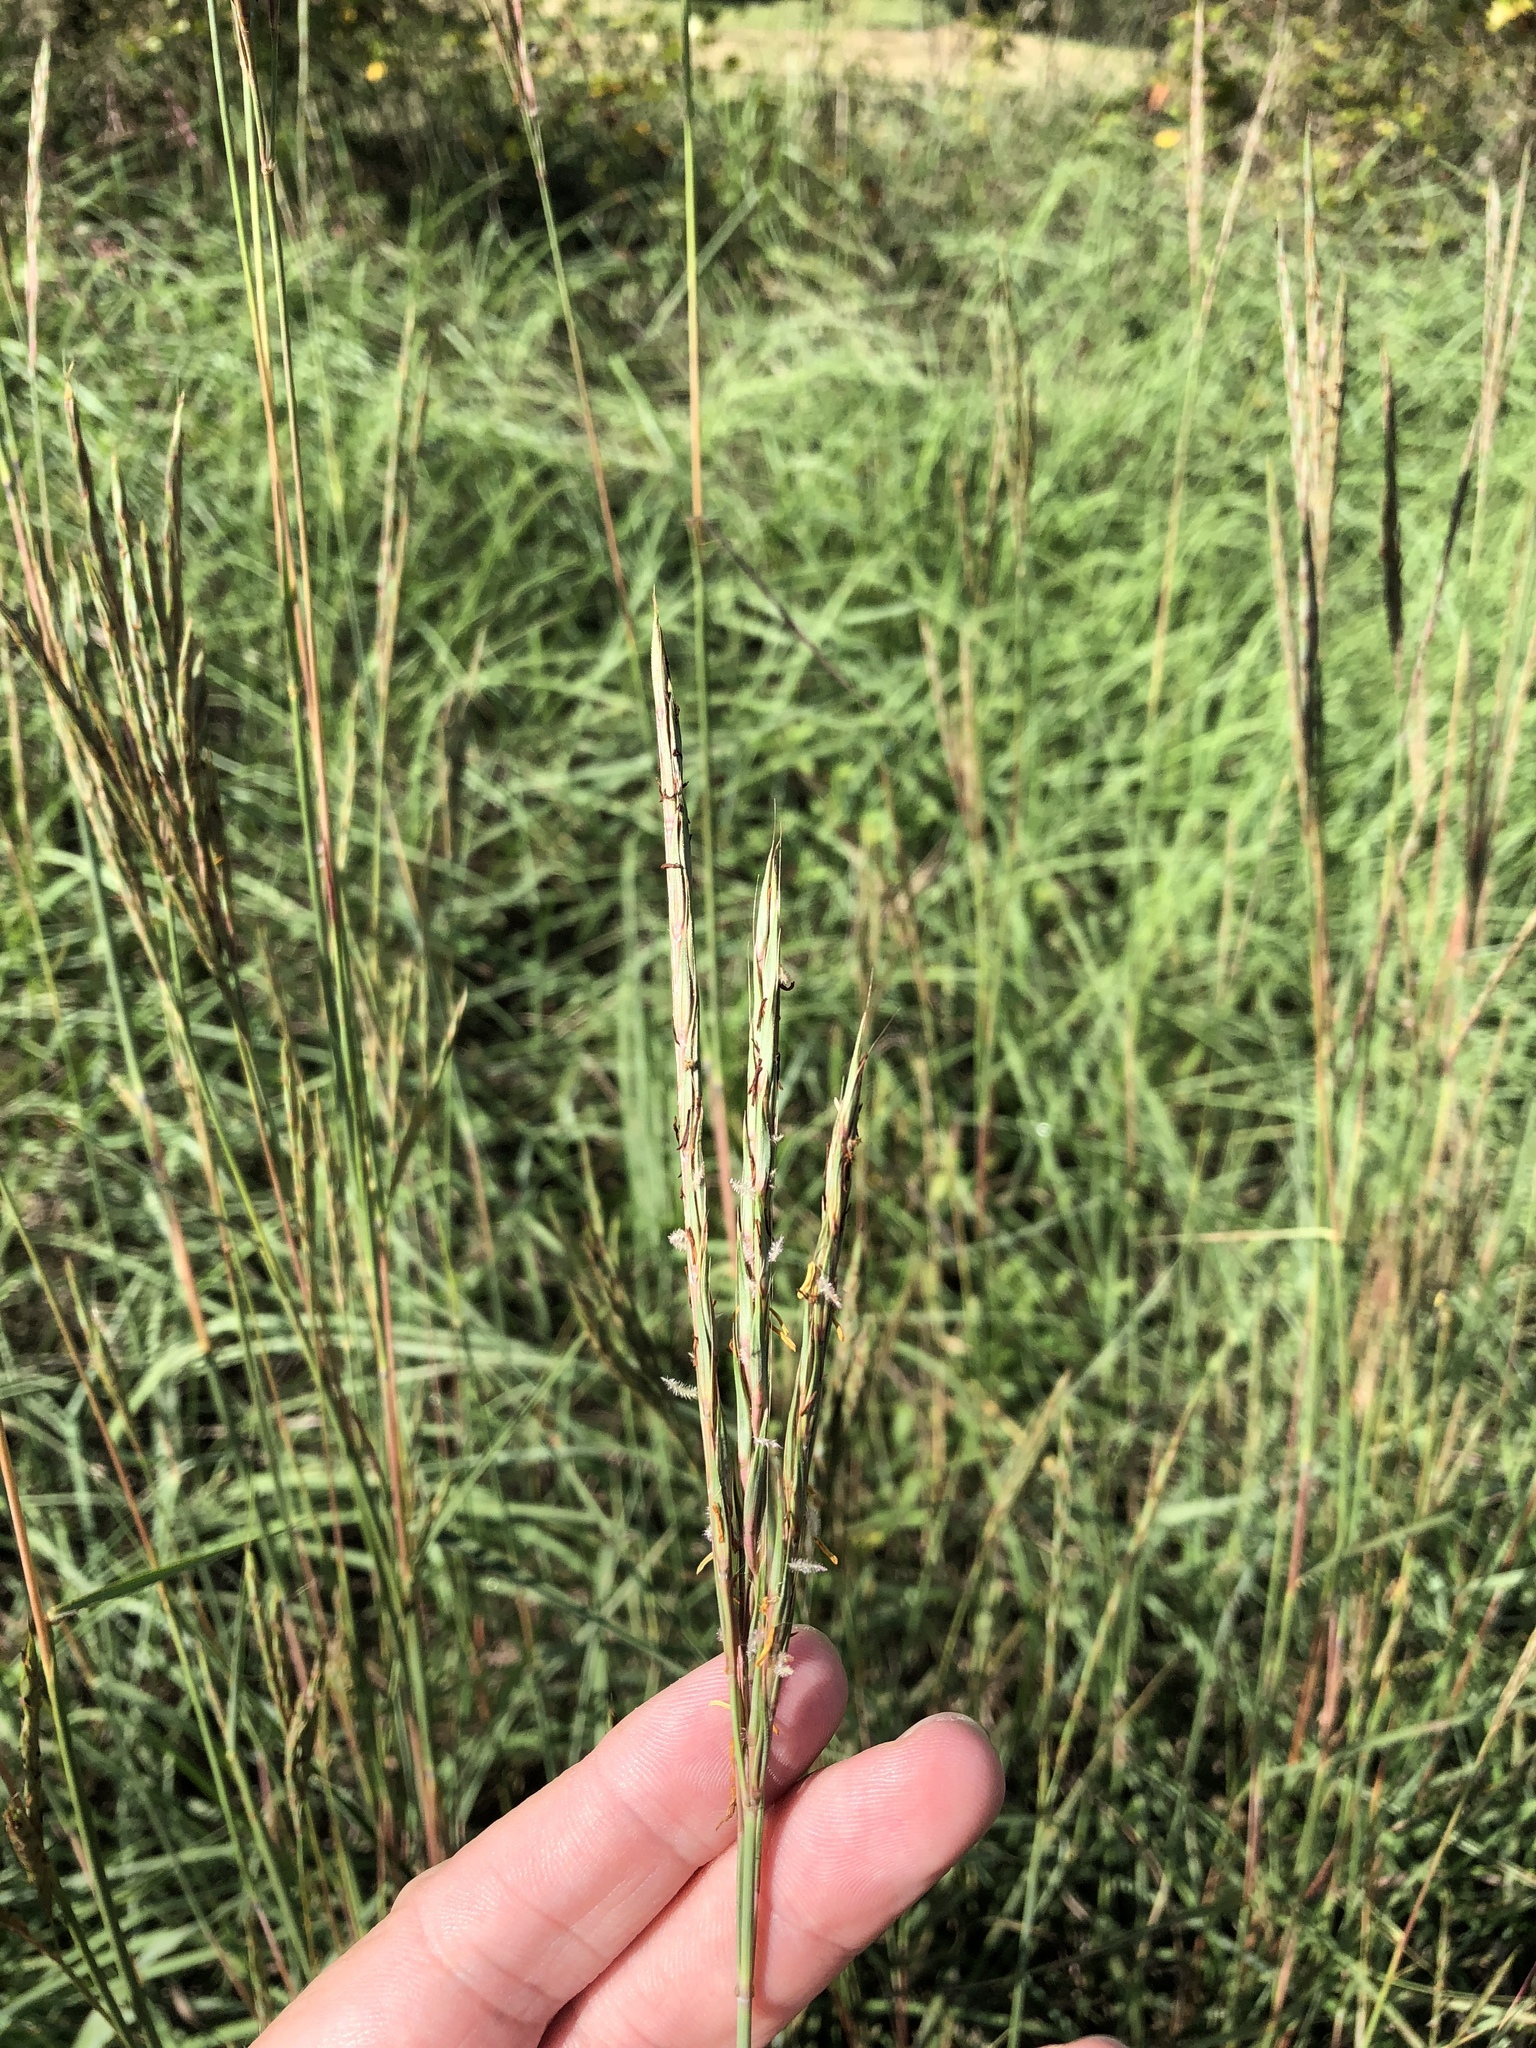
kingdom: Plantae
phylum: Tracheophyta
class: Liliopsida
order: Poales
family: Poaceae
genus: Andropogon
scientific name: Andropogon gerardi
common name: Big bluestem
